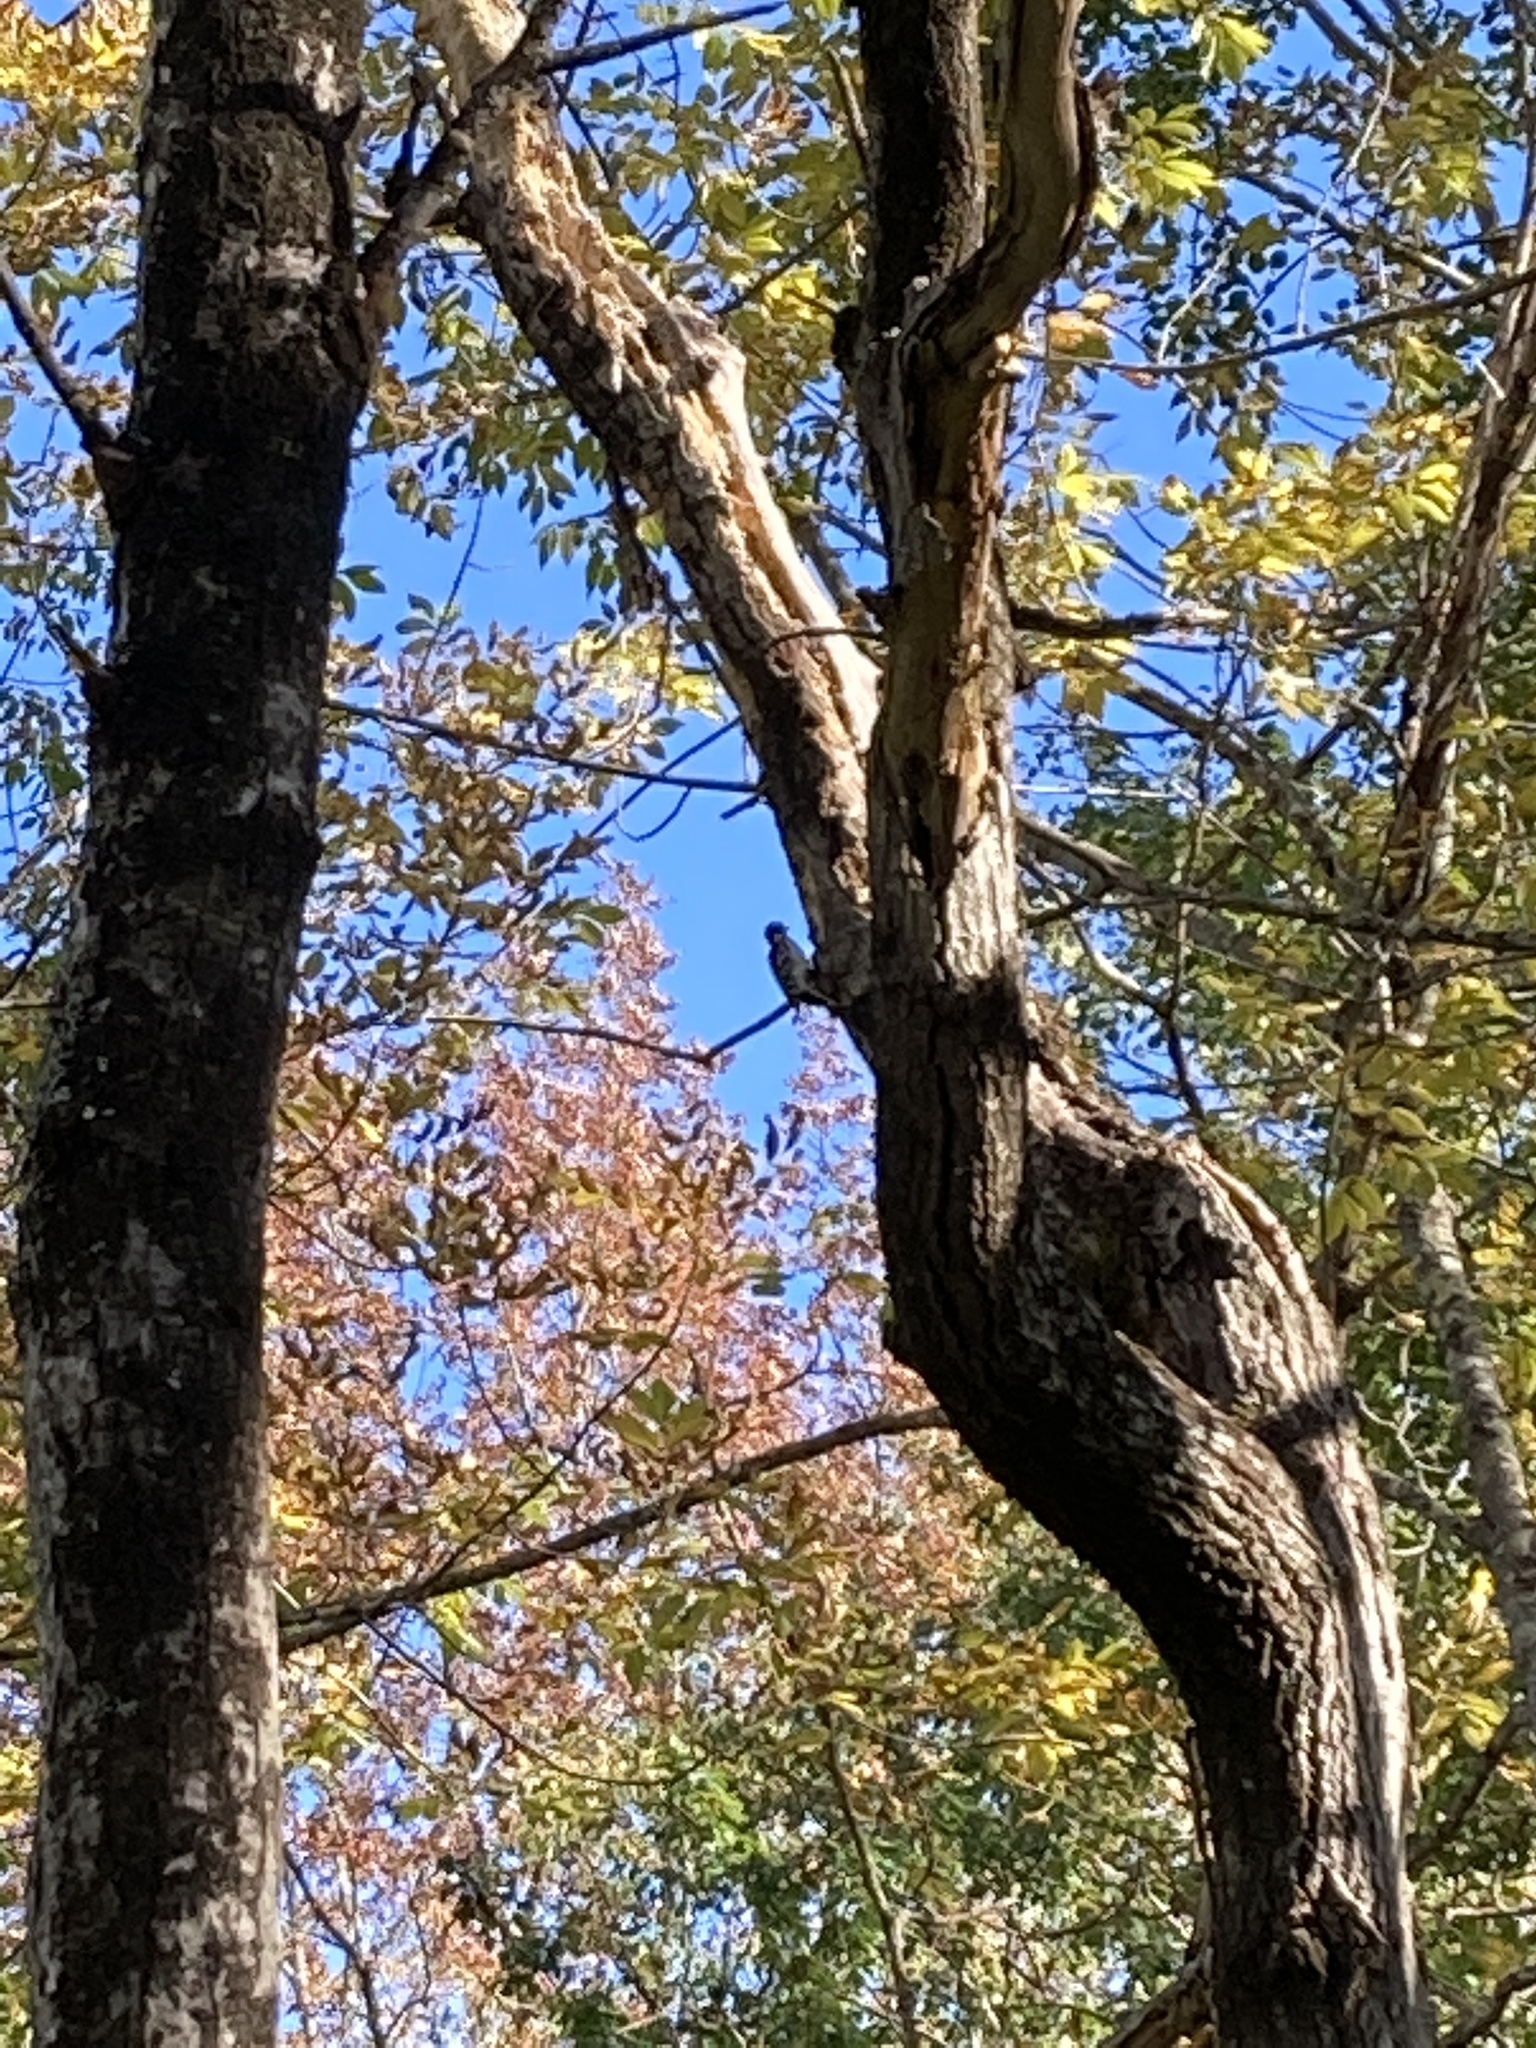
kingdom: Animalia
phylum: Chordata
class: Aves
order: Piciformes
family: Picidae
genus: Leuconotopicus
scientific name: Leuconotopicus villosus
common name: Hairy woodpecker
